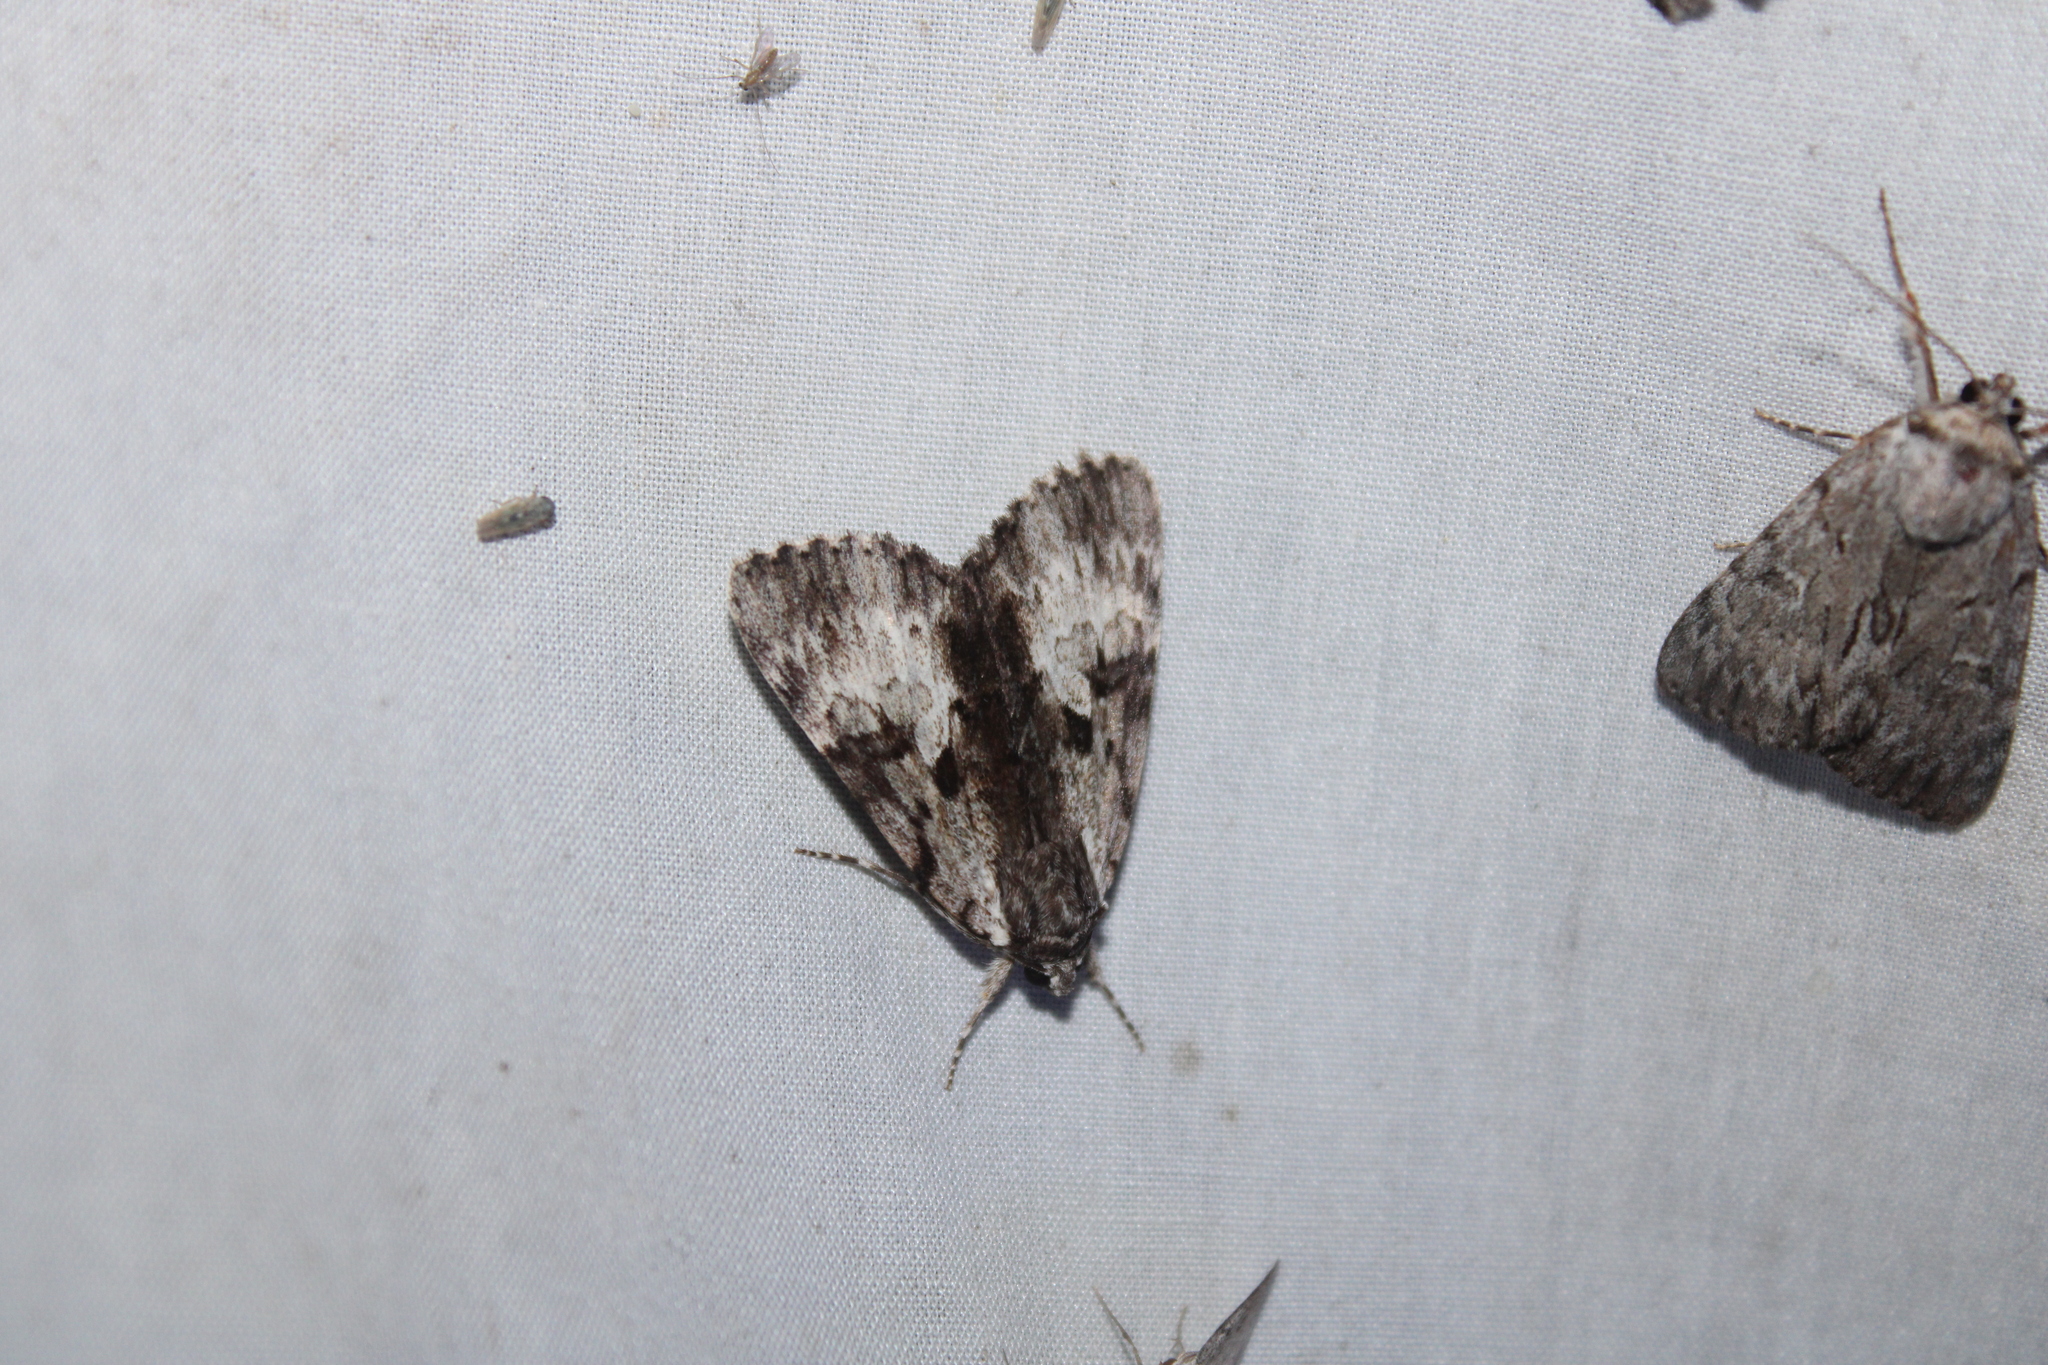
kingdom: Animalia
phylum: Arthropoda
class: Insecta
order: Lepidoptera
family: Erebidae
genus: Catocala
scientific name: Catocala andromedae
